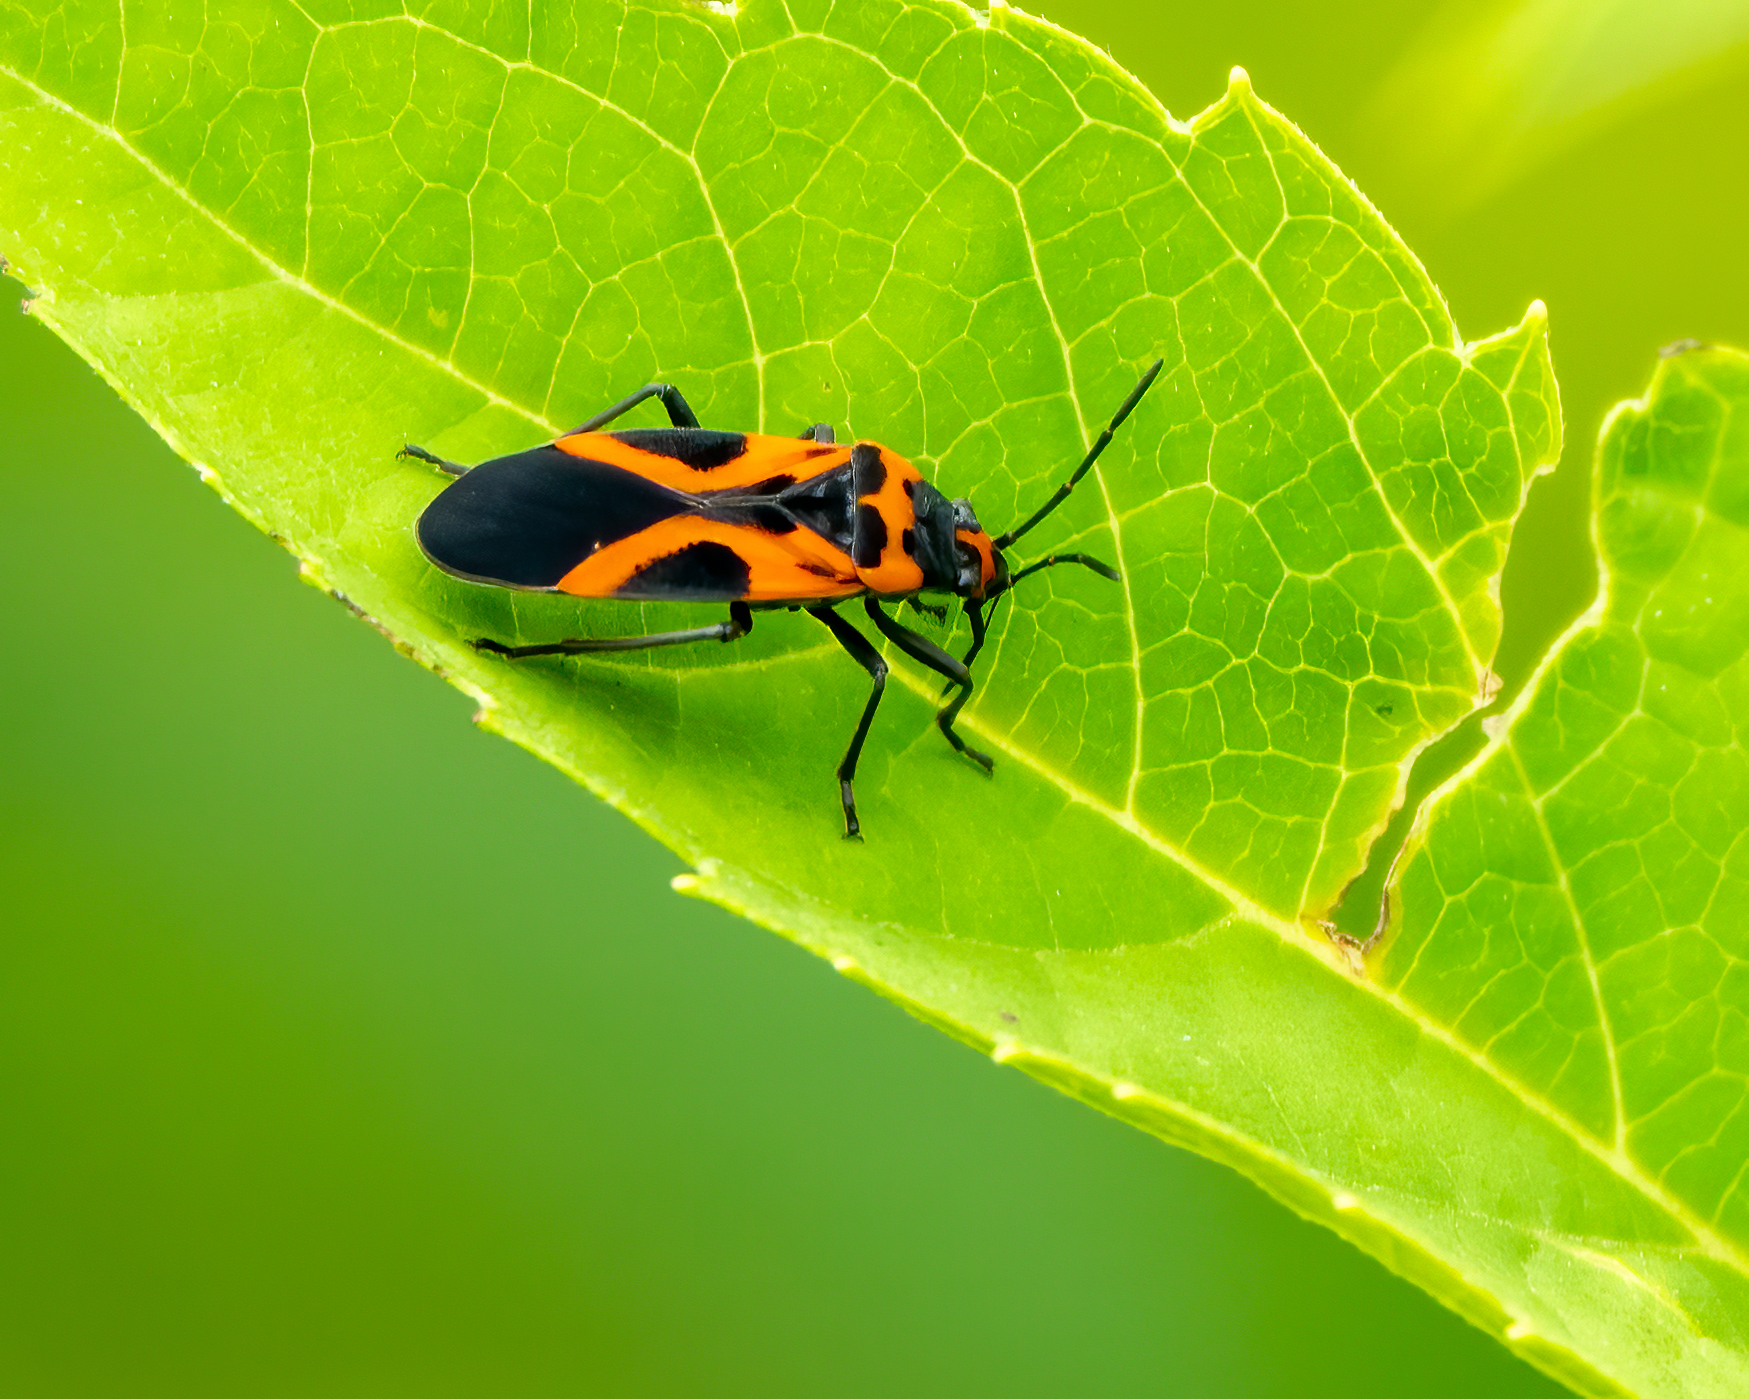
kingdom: Animalia
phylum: Arthropoda
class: Insecta
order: Hemiptera
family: Lygaeidae
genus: Lygaeus
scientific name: Lygaeus turcicus
